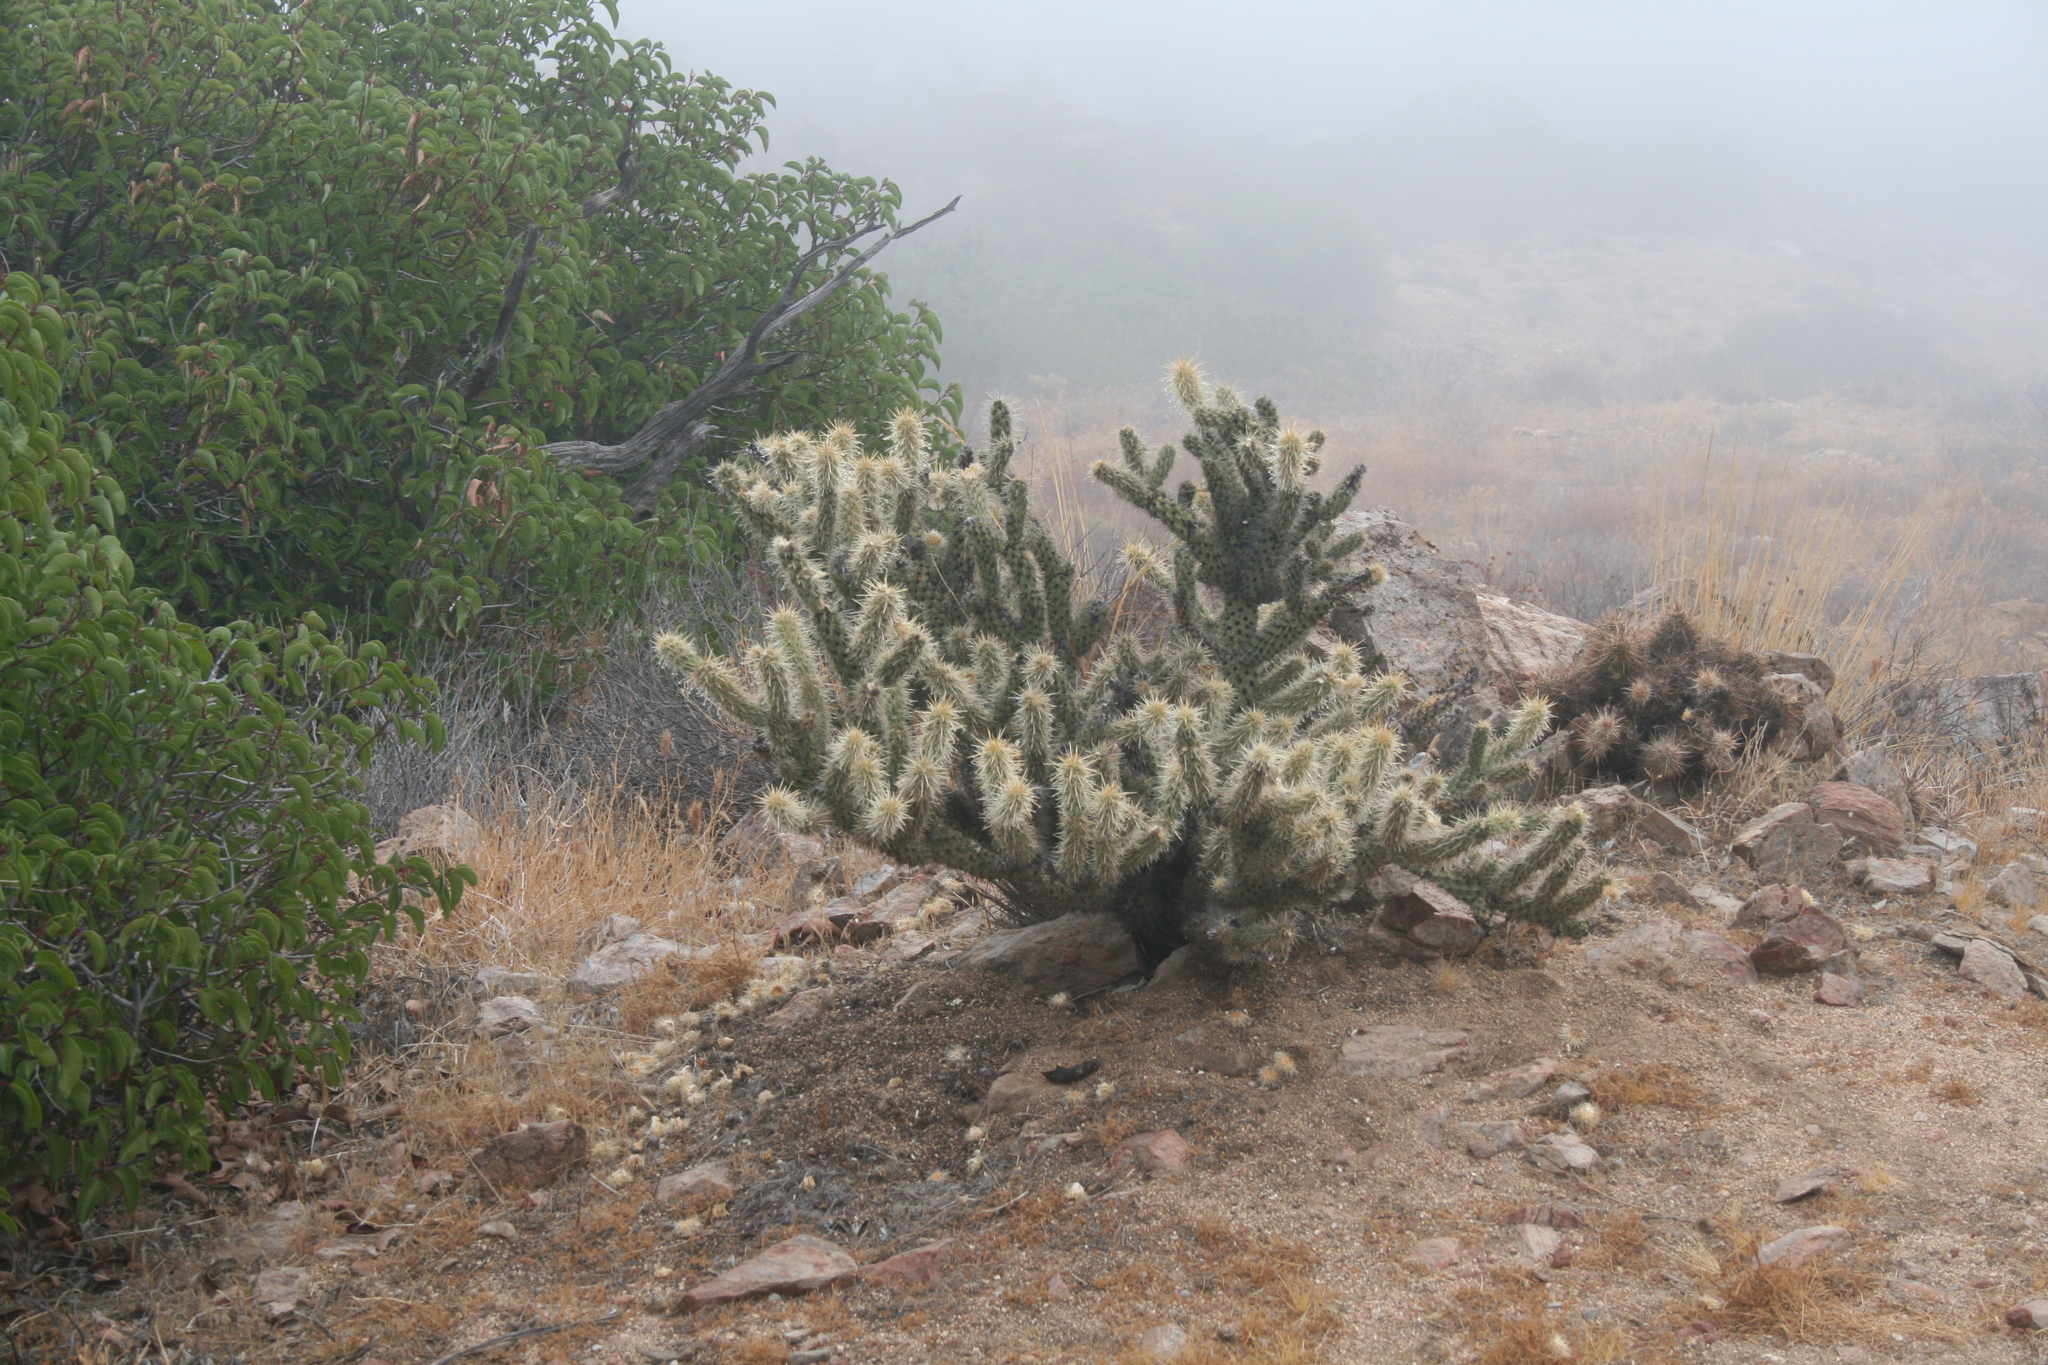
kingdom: Plantae
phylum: Tracheophyta
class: Magnoliopsida
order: Caryophyllales
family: Cactaceae
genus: Cylindropuntia
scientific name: Cylindropuntia wolfii
